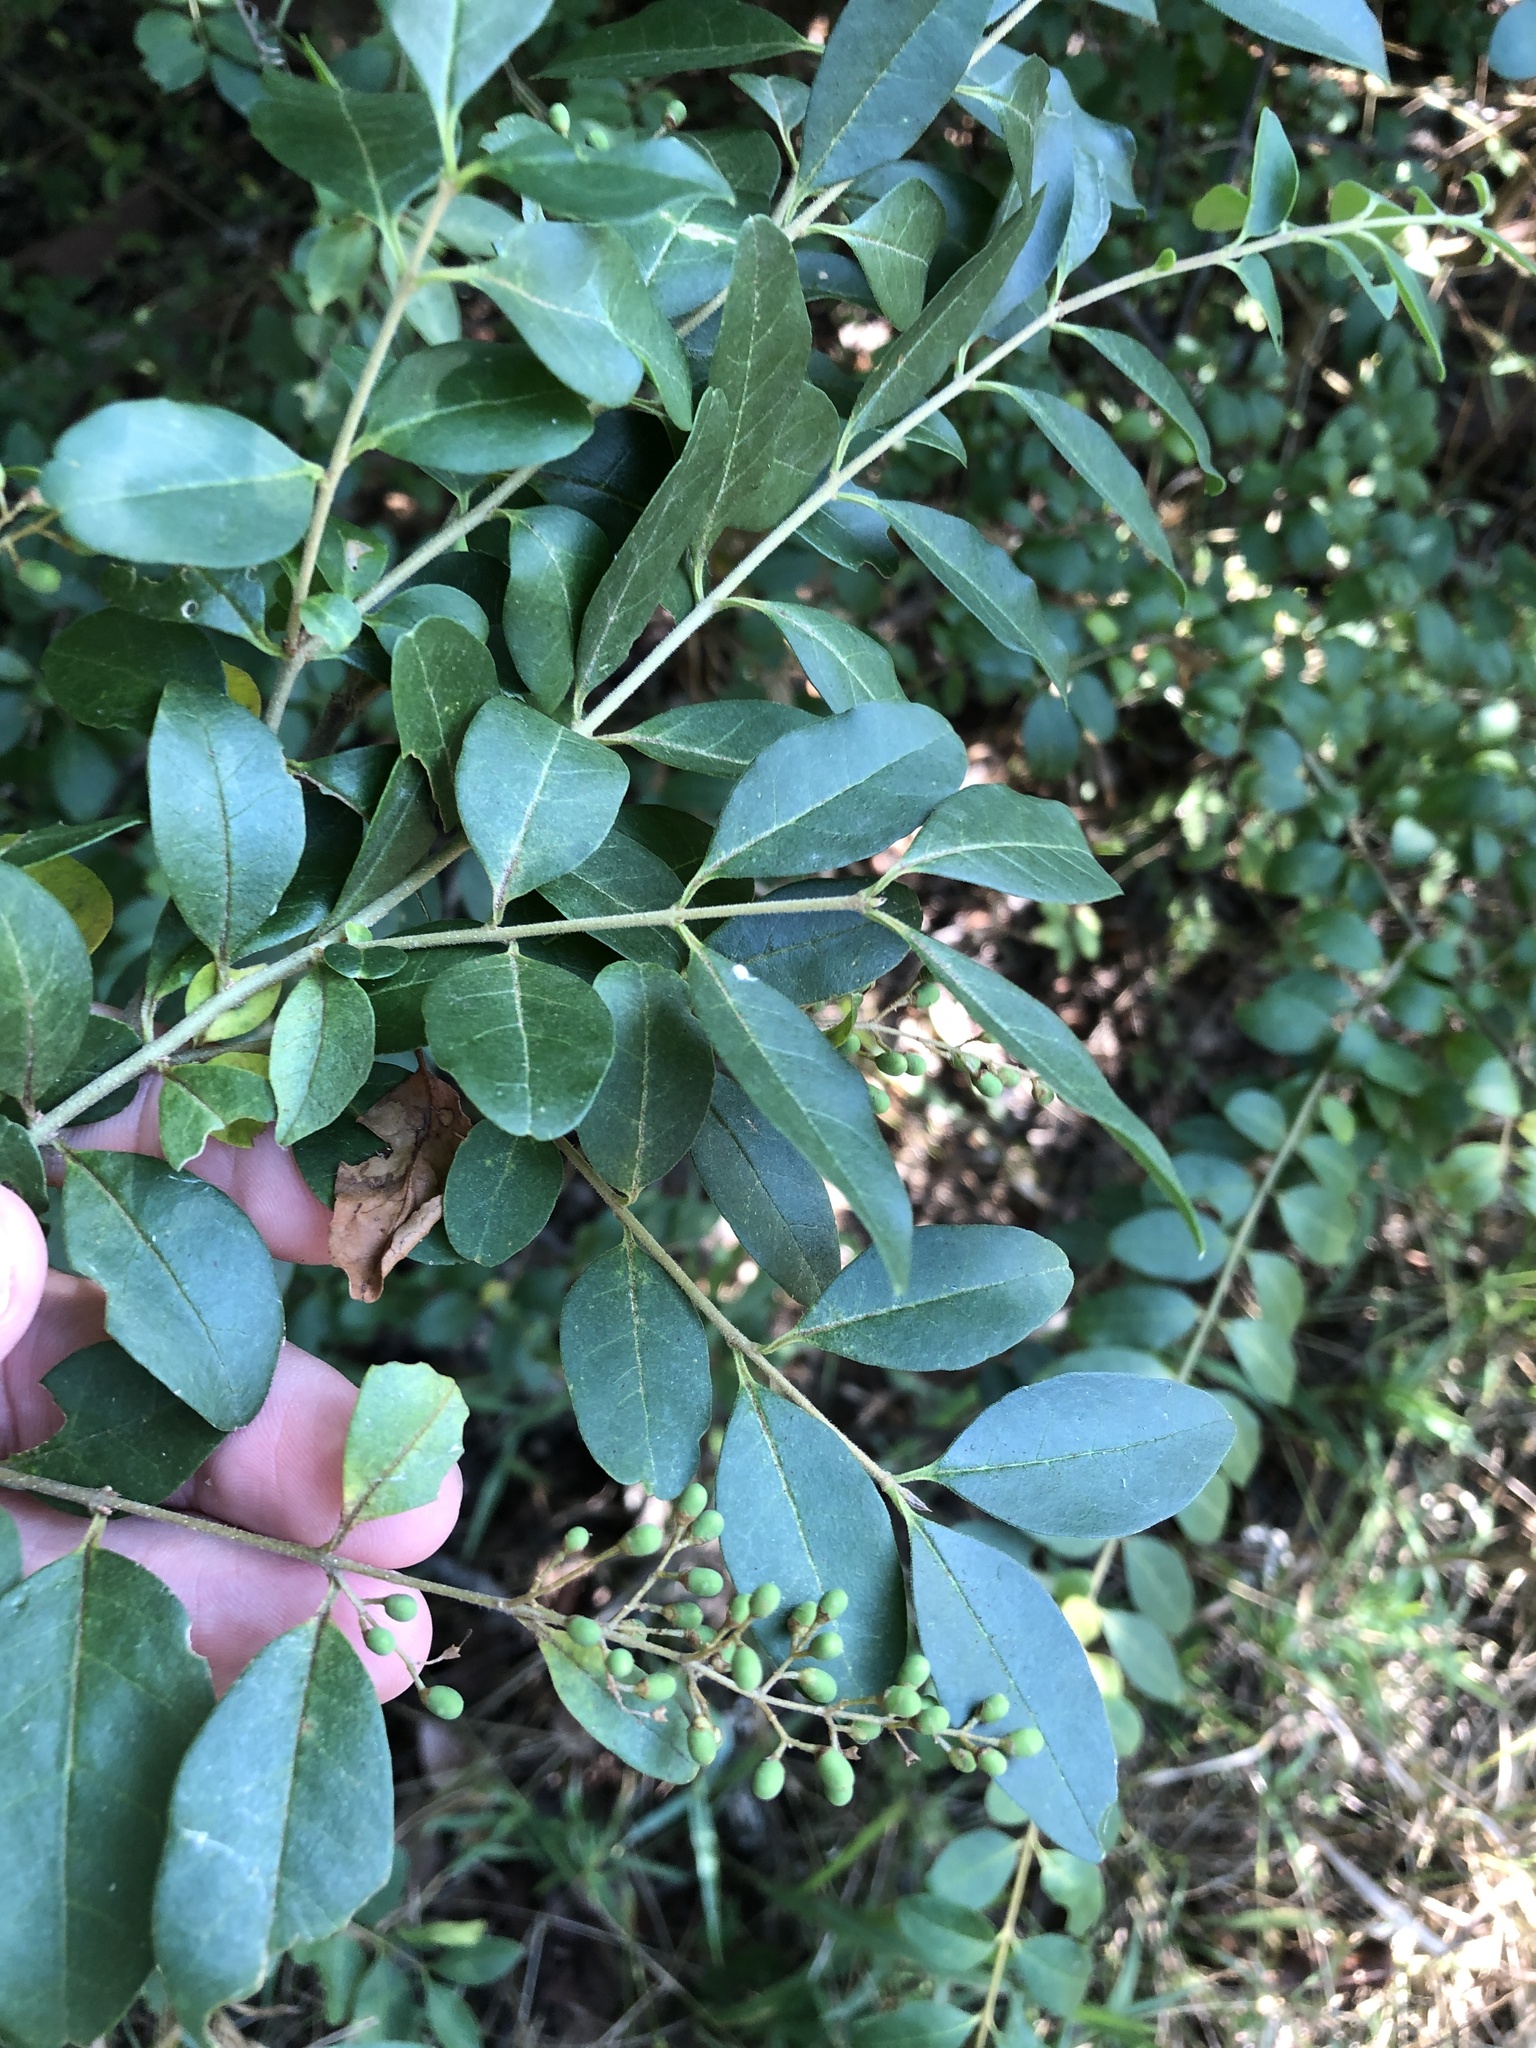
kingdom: Plantae
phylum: Tracheophyta
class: Magnoliopsida
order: Lamiales
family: Oleaceae
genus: Ligustrum
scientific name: Ligustrum sinense
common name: Chinese privet
